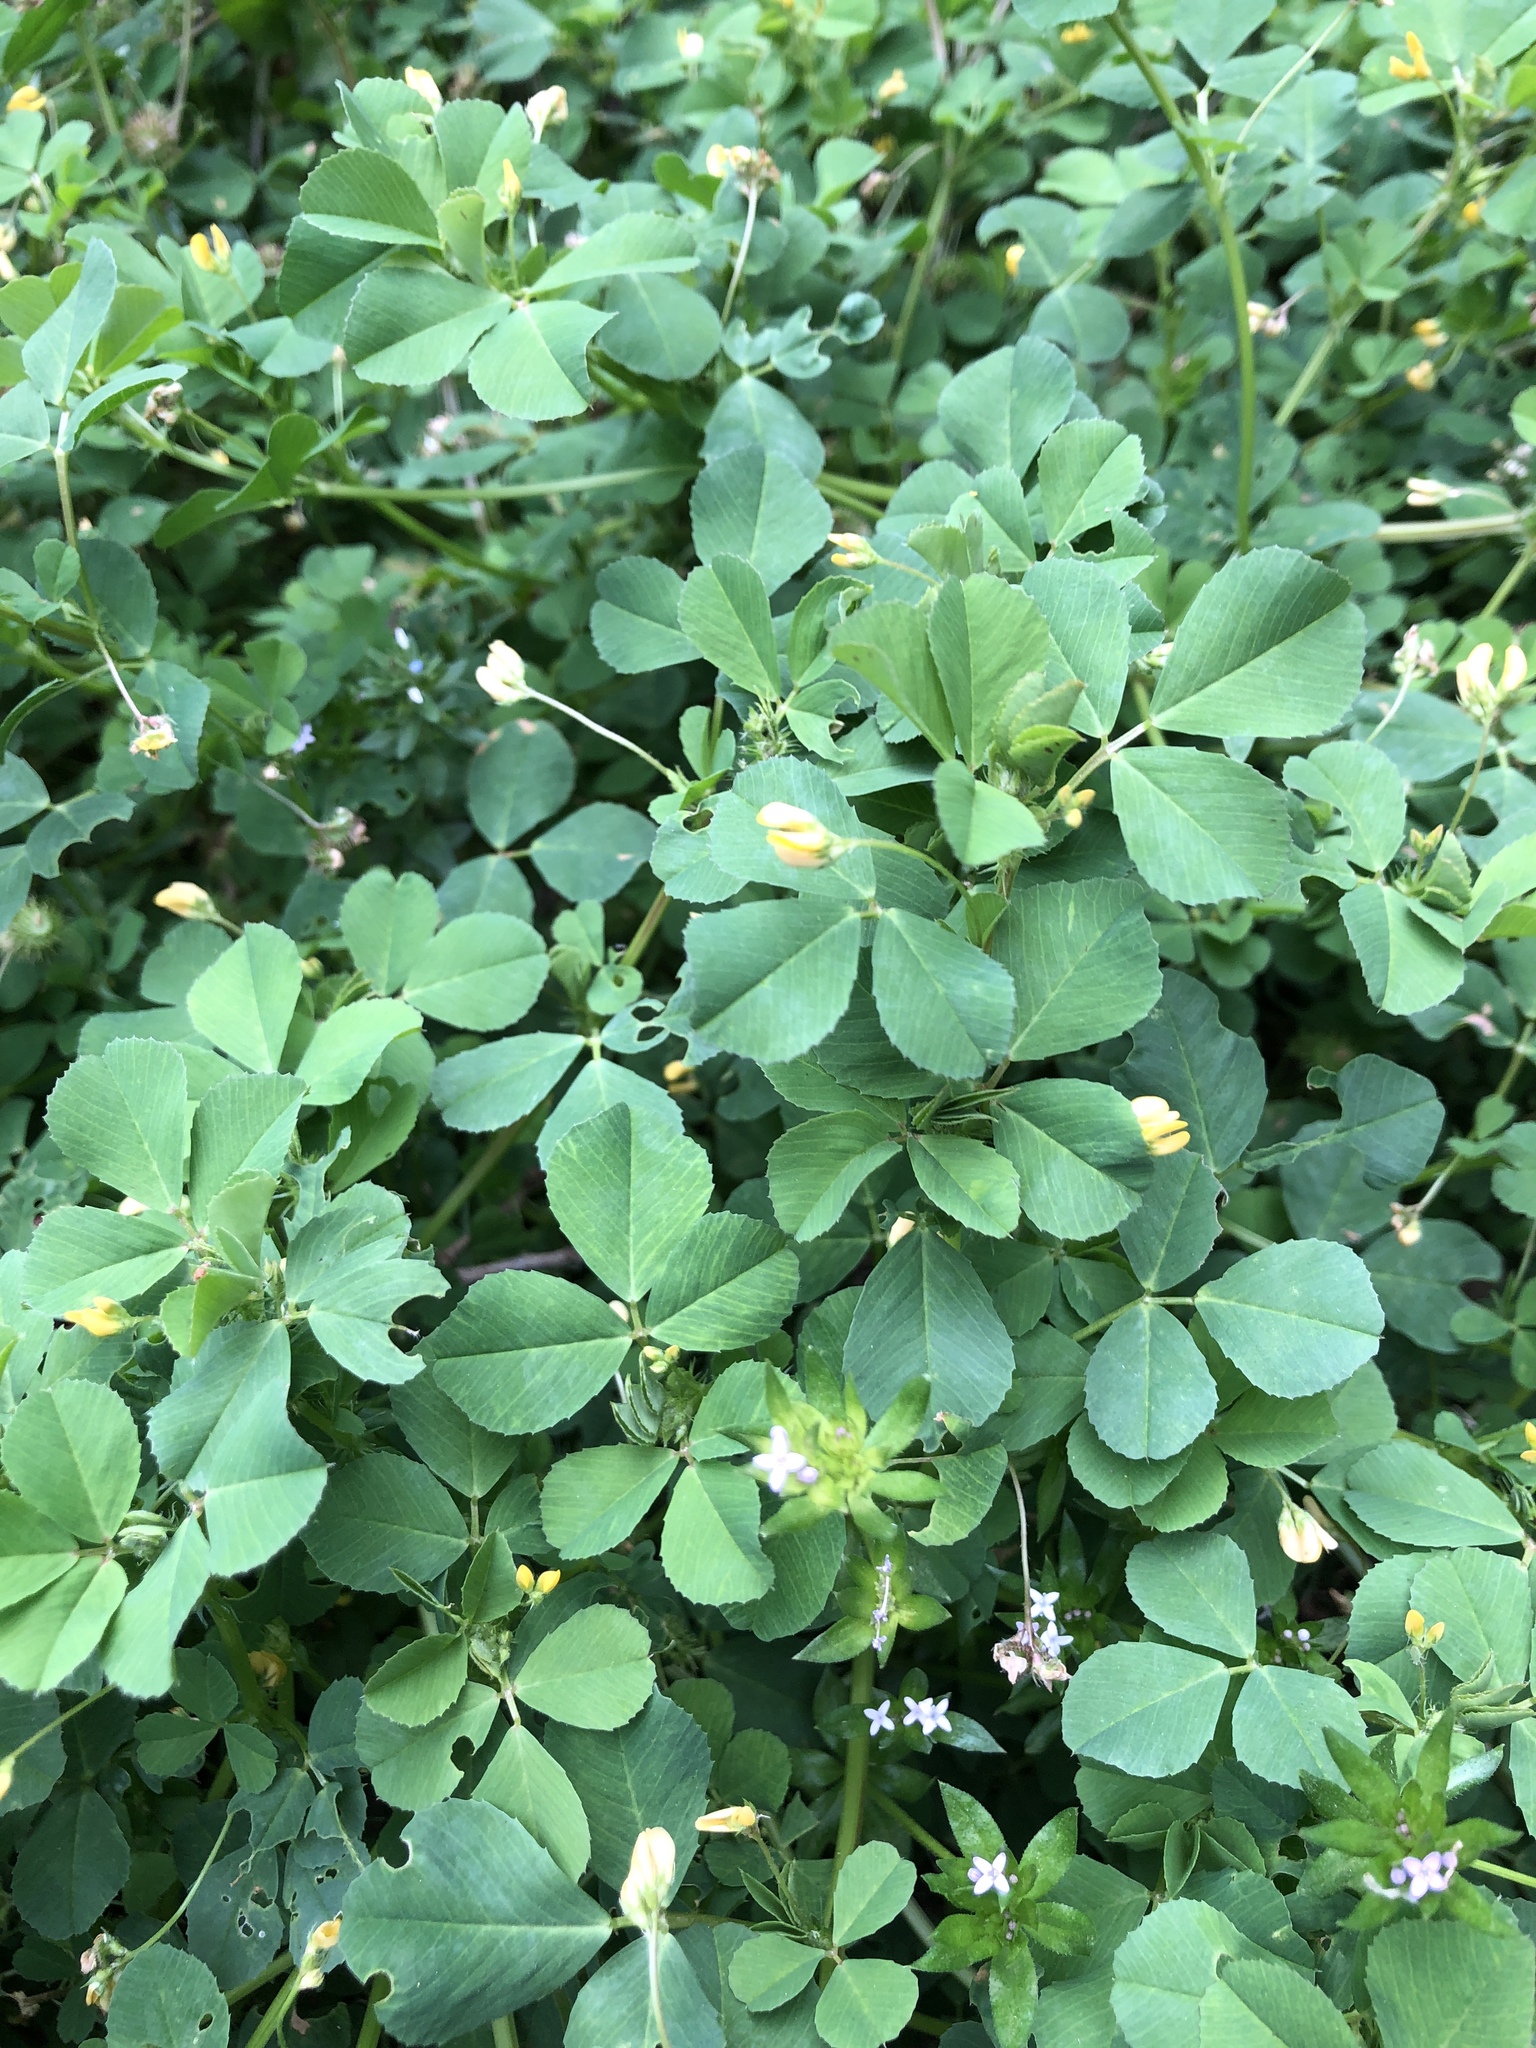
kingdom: Plantae
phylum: Tracheophyta
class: Magnoliopsida
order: Fabales
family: Fabaceae
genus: Medicago
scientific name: Medicago polymorpha
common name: Burclover
